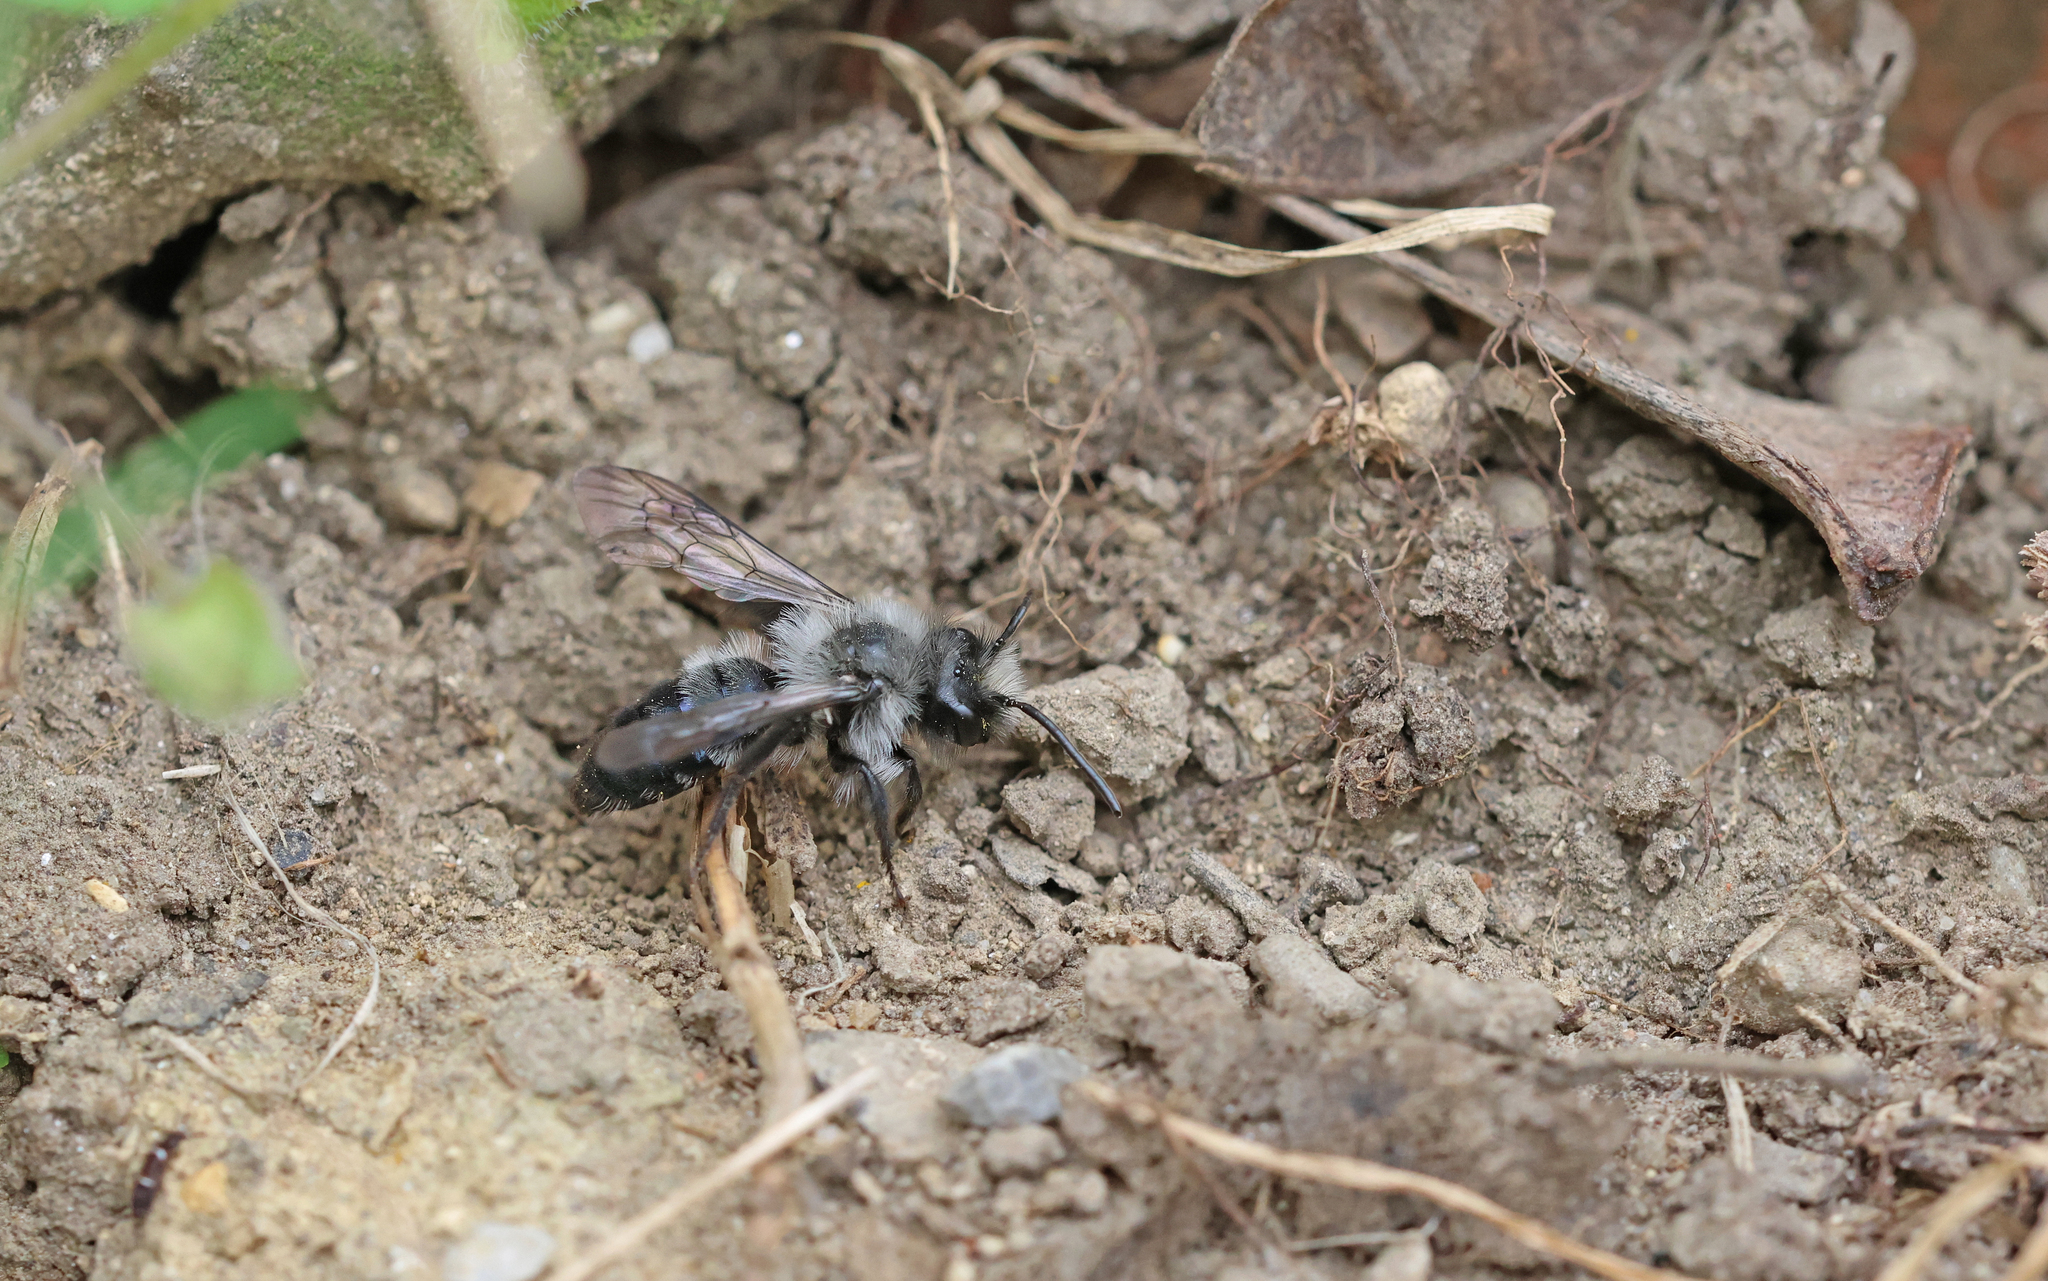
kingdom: Animalia
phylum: Arthropoda
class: Insecta
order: Hymenoptera
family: Andrenidae
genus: Andrena
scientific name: Andrena cineraria
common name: Ashy mining bee
